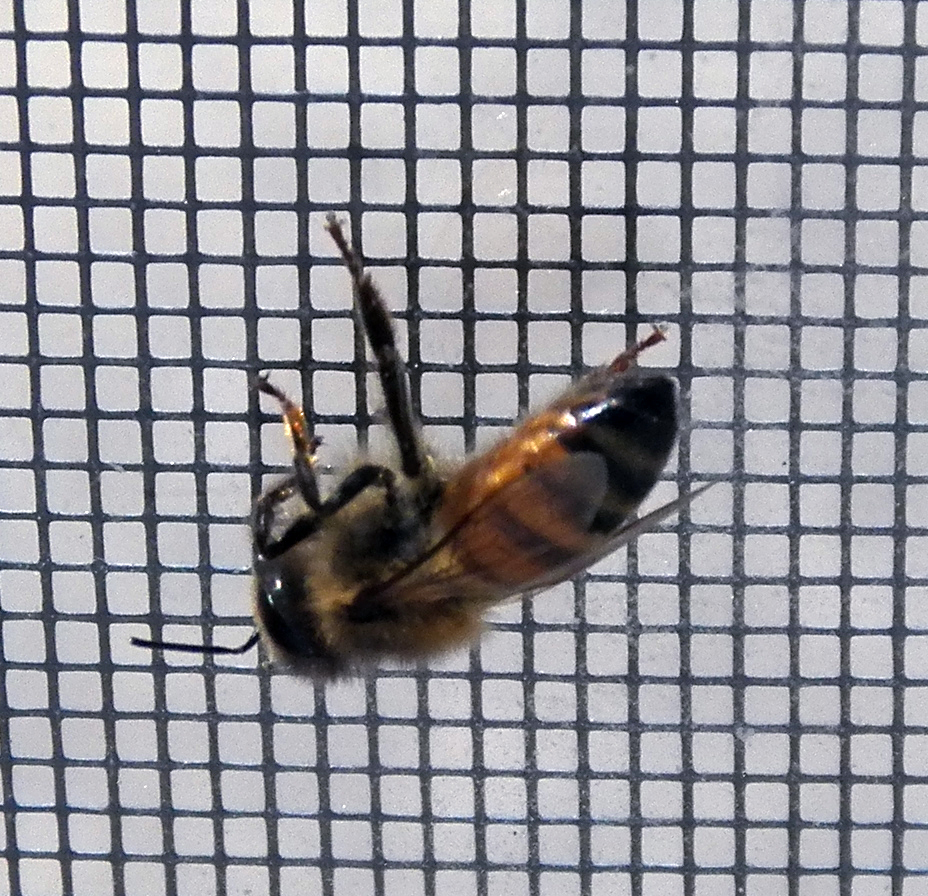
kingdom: Animalia
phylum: Arthropoda
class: Insecta
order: Hymenoptera
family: Apidae
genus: Apis
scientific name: Apis mellifera
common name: Honey bee
